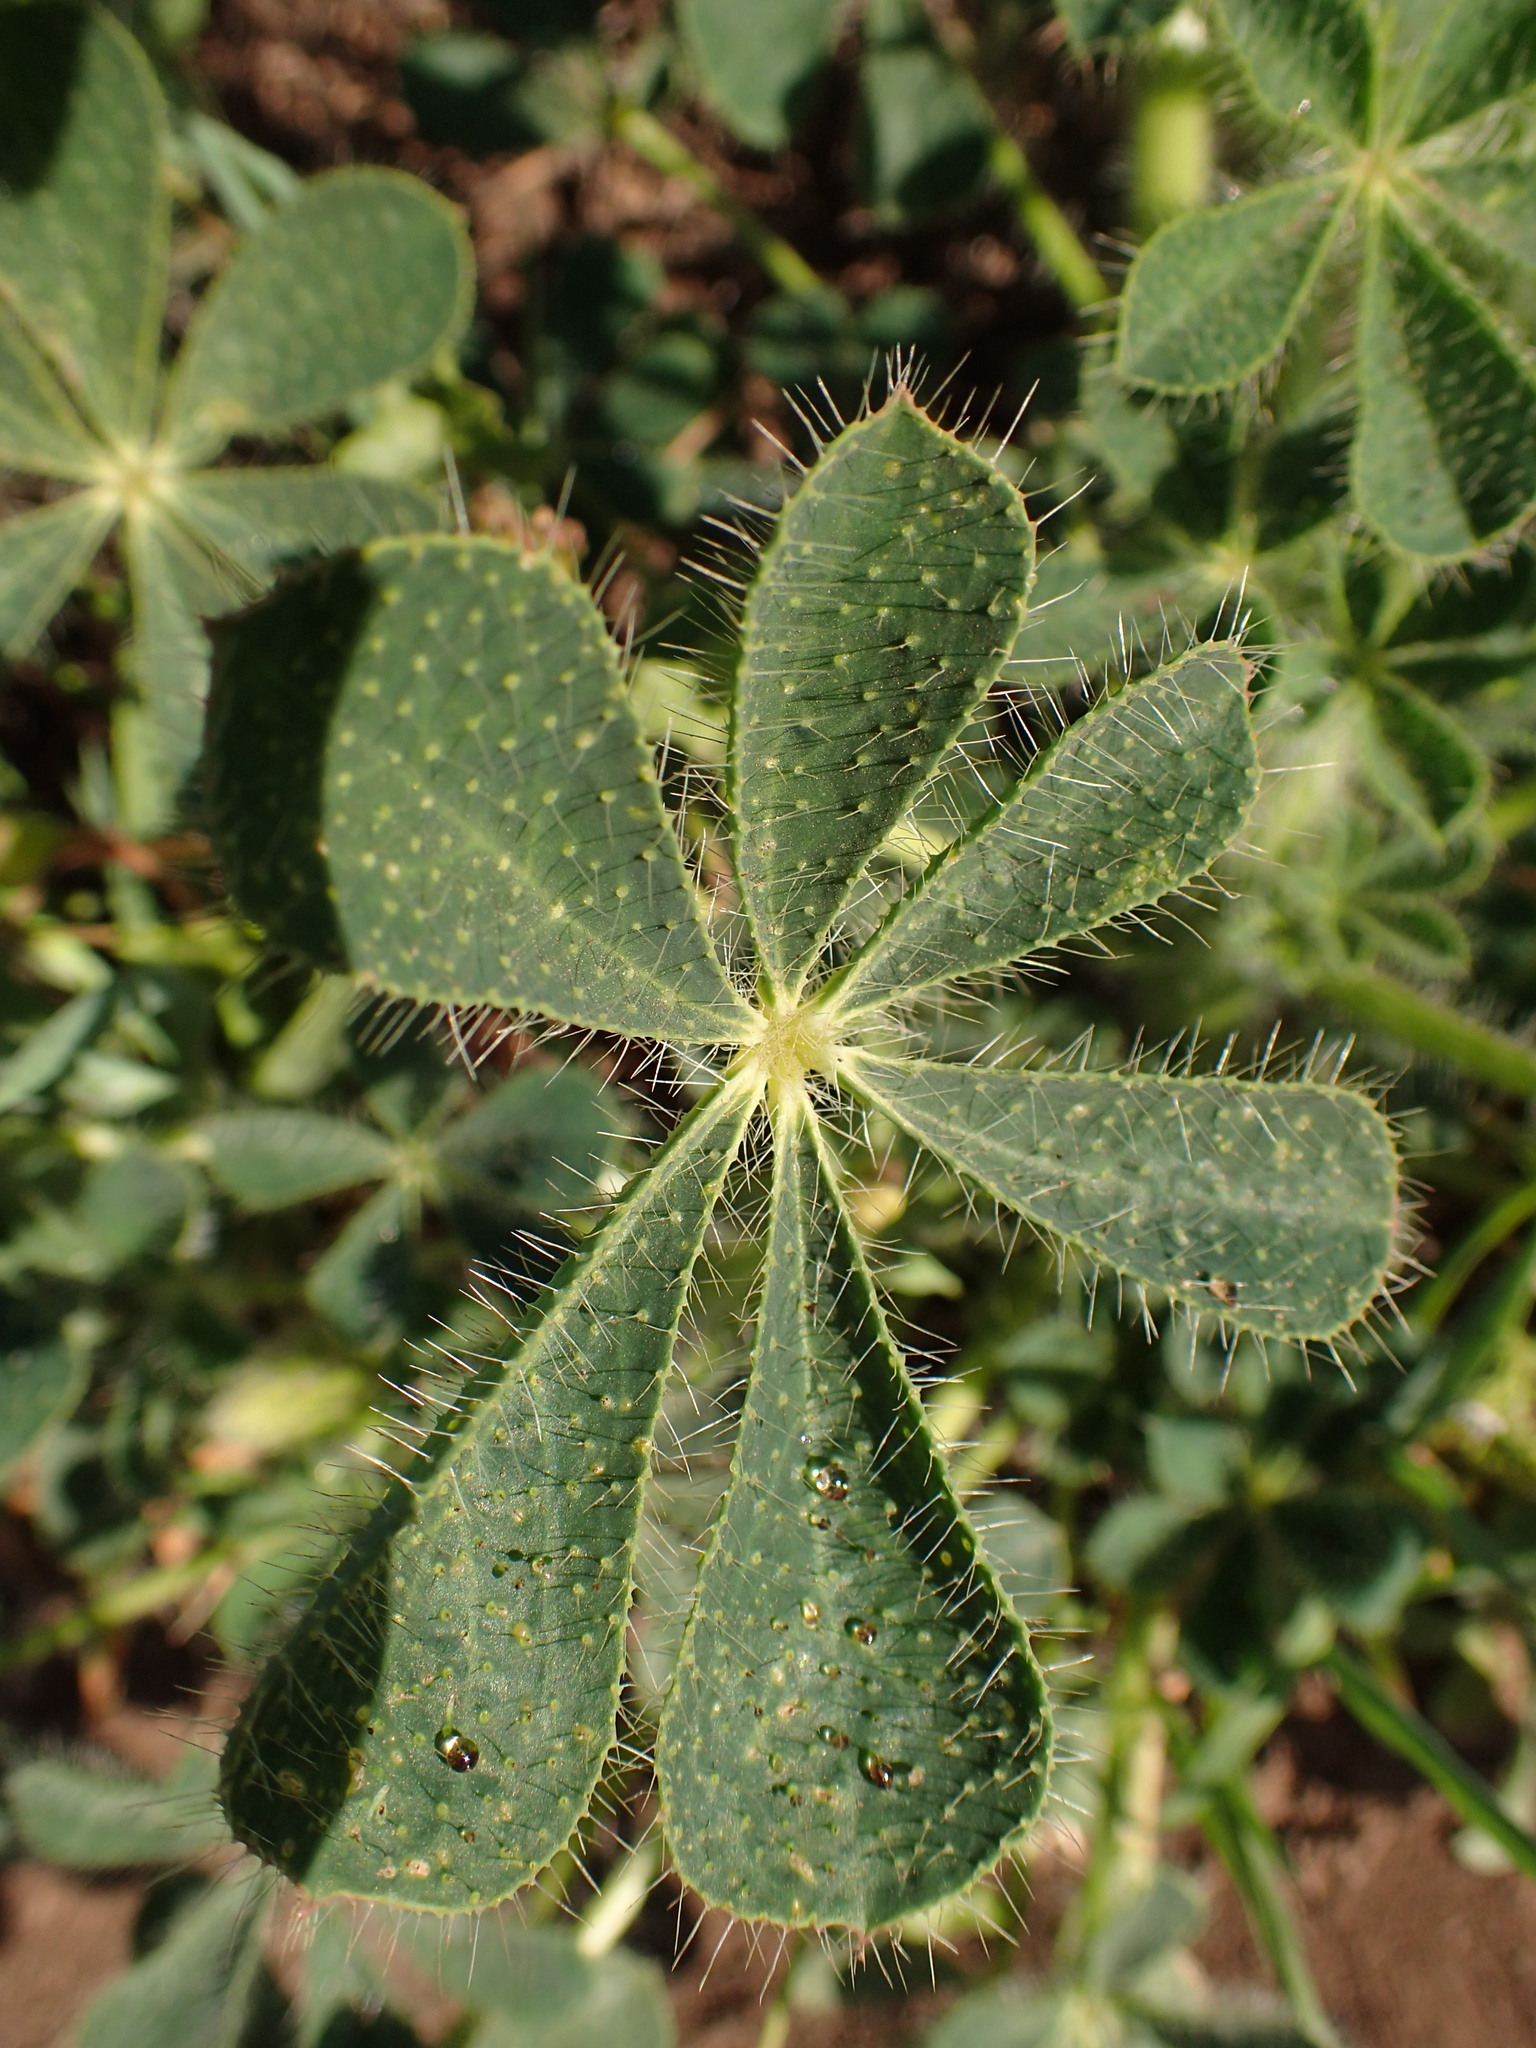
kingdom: Plantae
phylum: Tracheophyta
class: Magnoliopsida
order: Fabales
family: Fabaceae
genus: Lupinus
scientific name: Lupinus hirsutissimus
